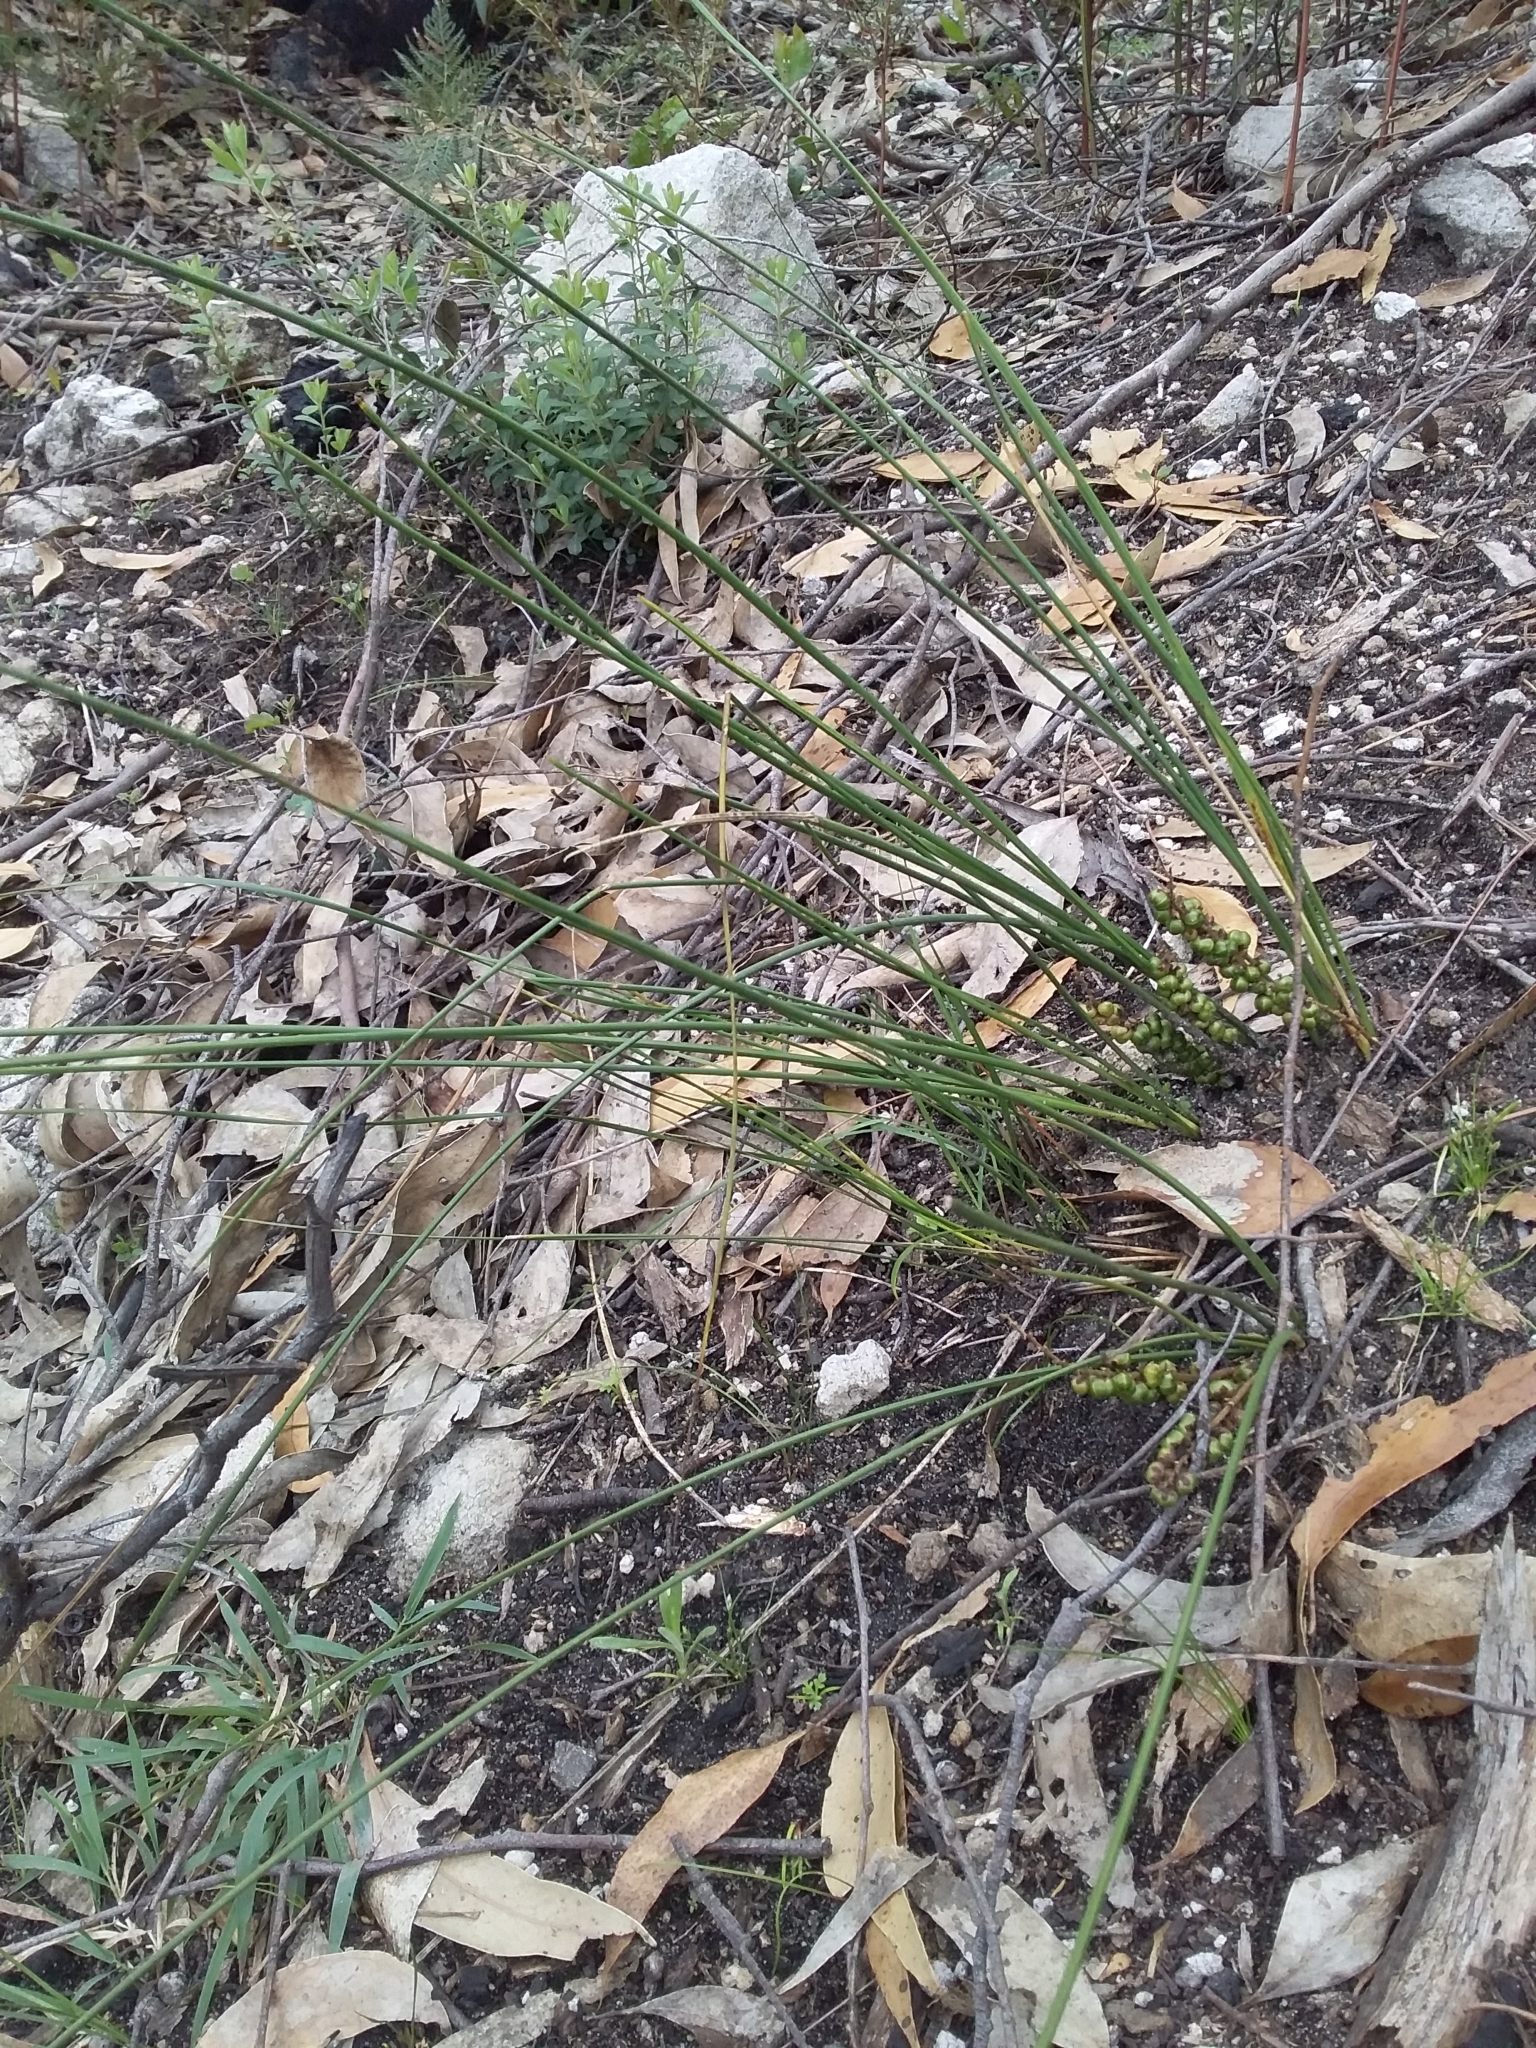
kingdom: Plantae
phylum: Tracheophyta
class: Liliopsida
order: Asparagales
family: Asparagaceae
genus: Lomandra
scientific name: Lomandra micrantha
